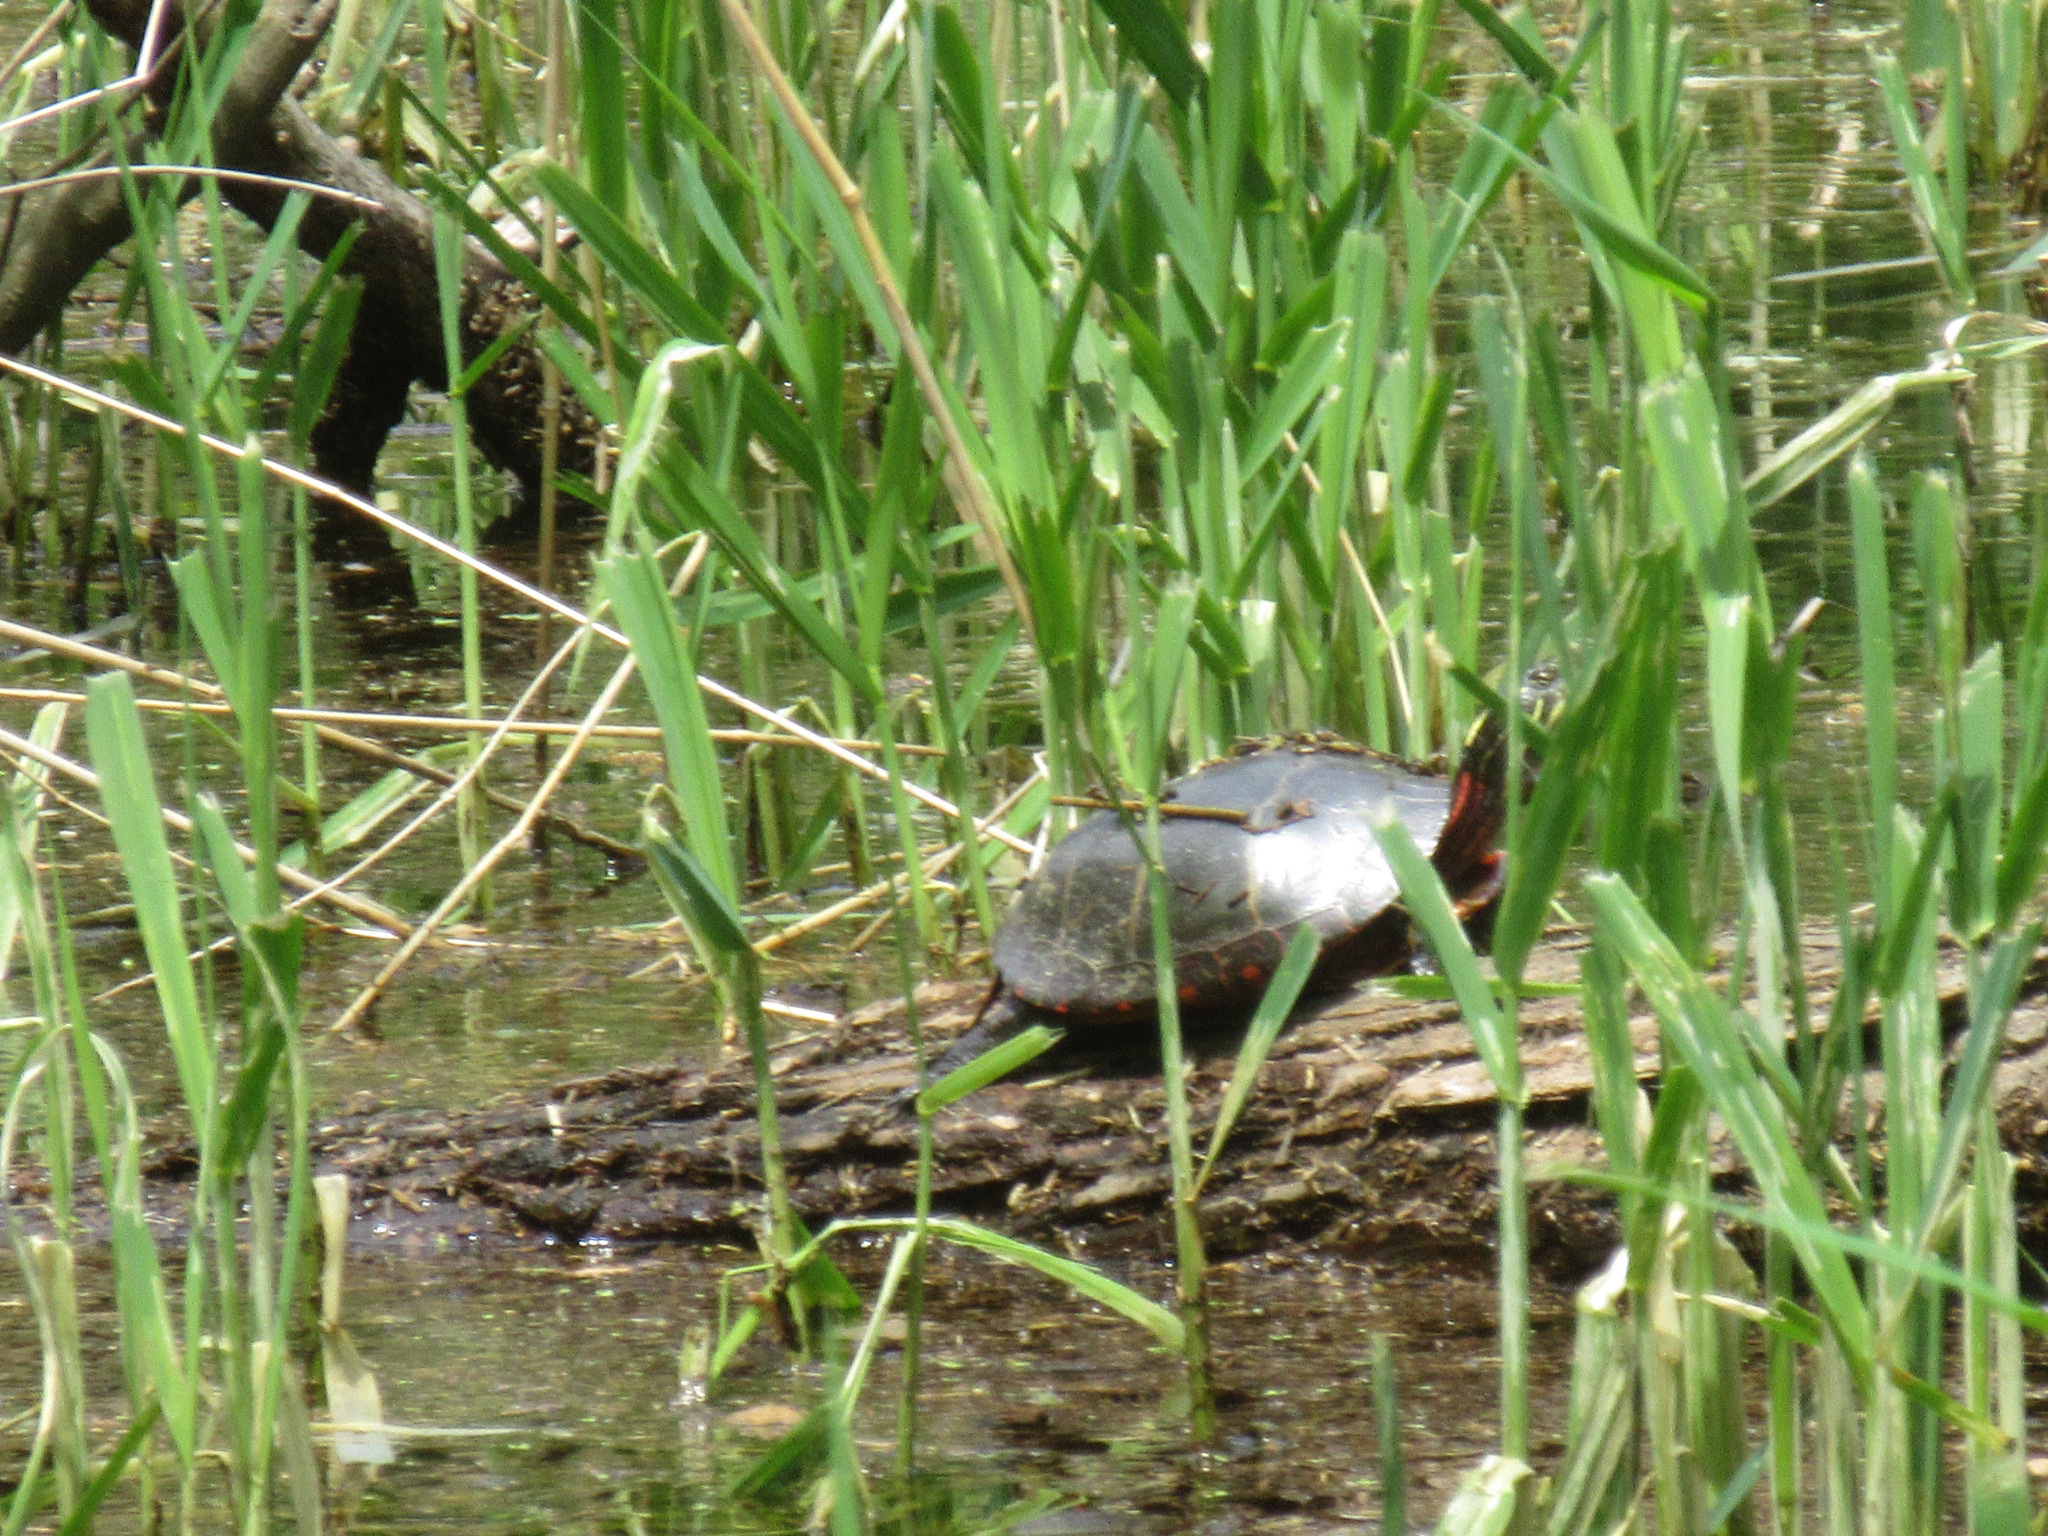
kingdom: Animalia
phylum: Chordata
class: Testudines
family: Emydidae
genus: Chrysemys
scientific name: Chrysemys picta
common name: Painted turtle
